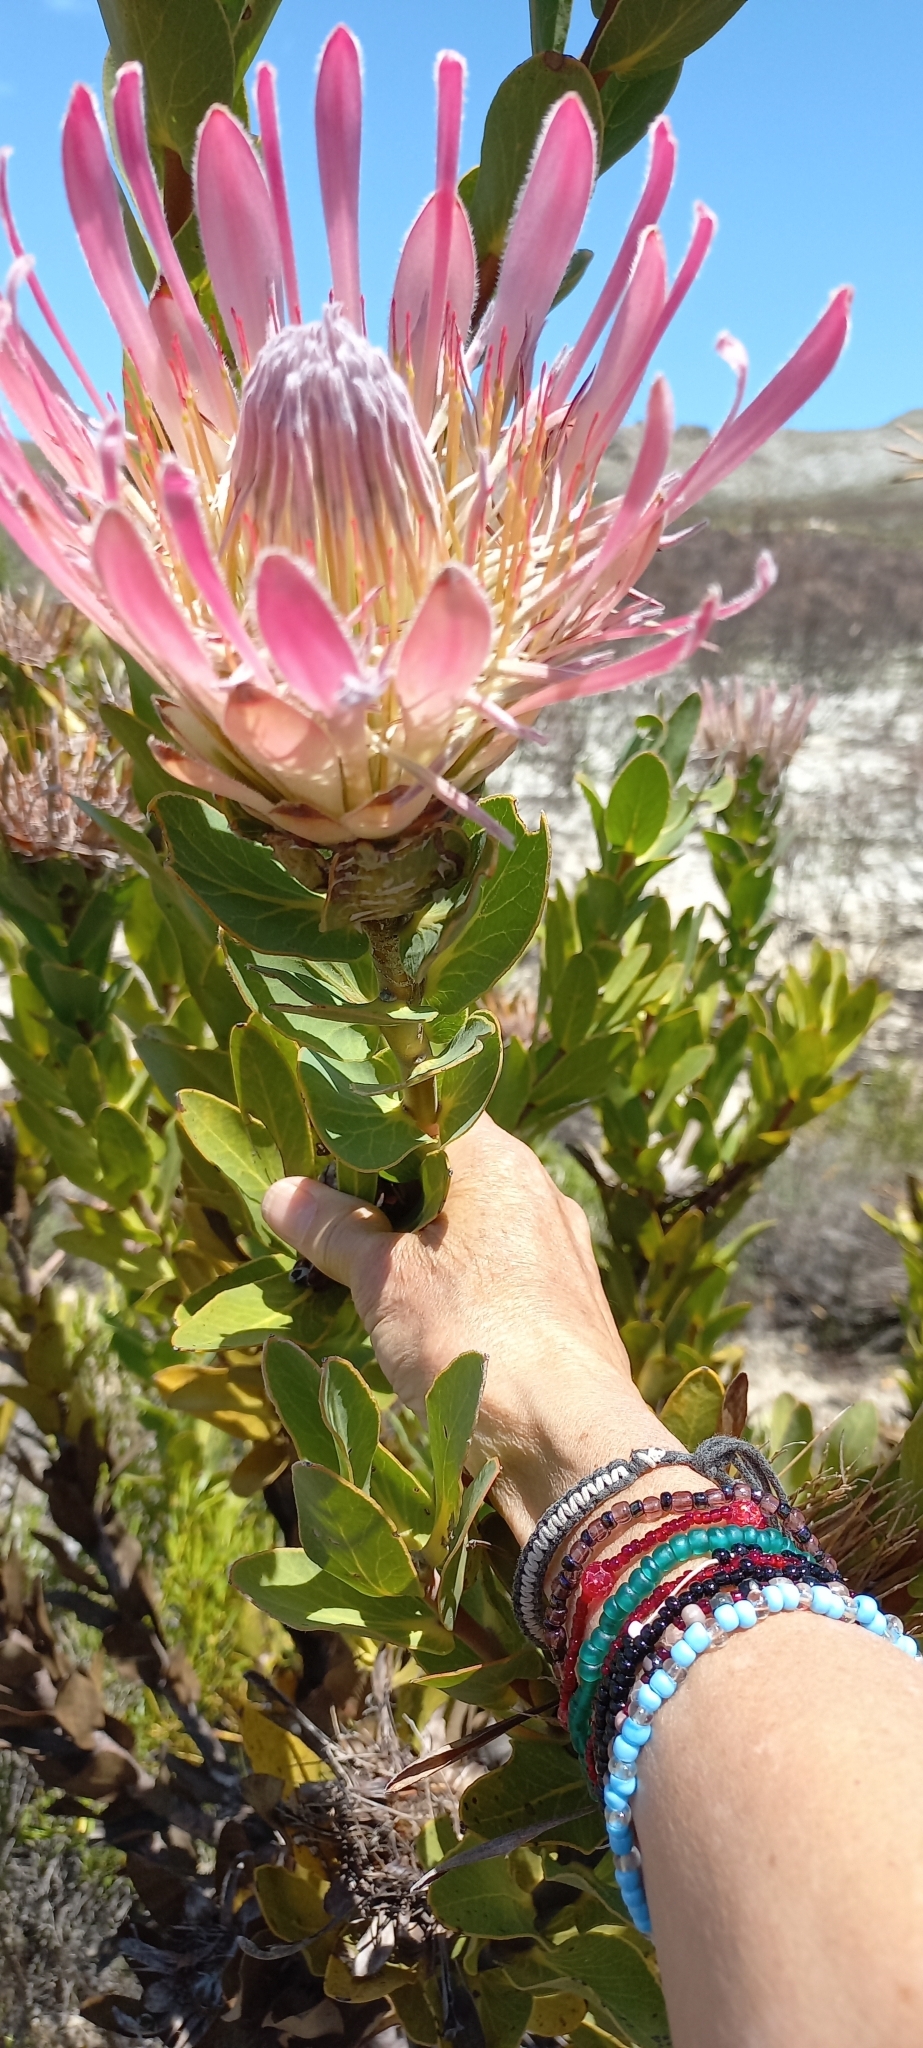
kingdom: Plantae
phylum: Tracheophyta
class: Magnoliopsida
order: Proteales
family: Proteaceae
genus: Protea
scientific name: Protea compacta
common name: Bot river protea
